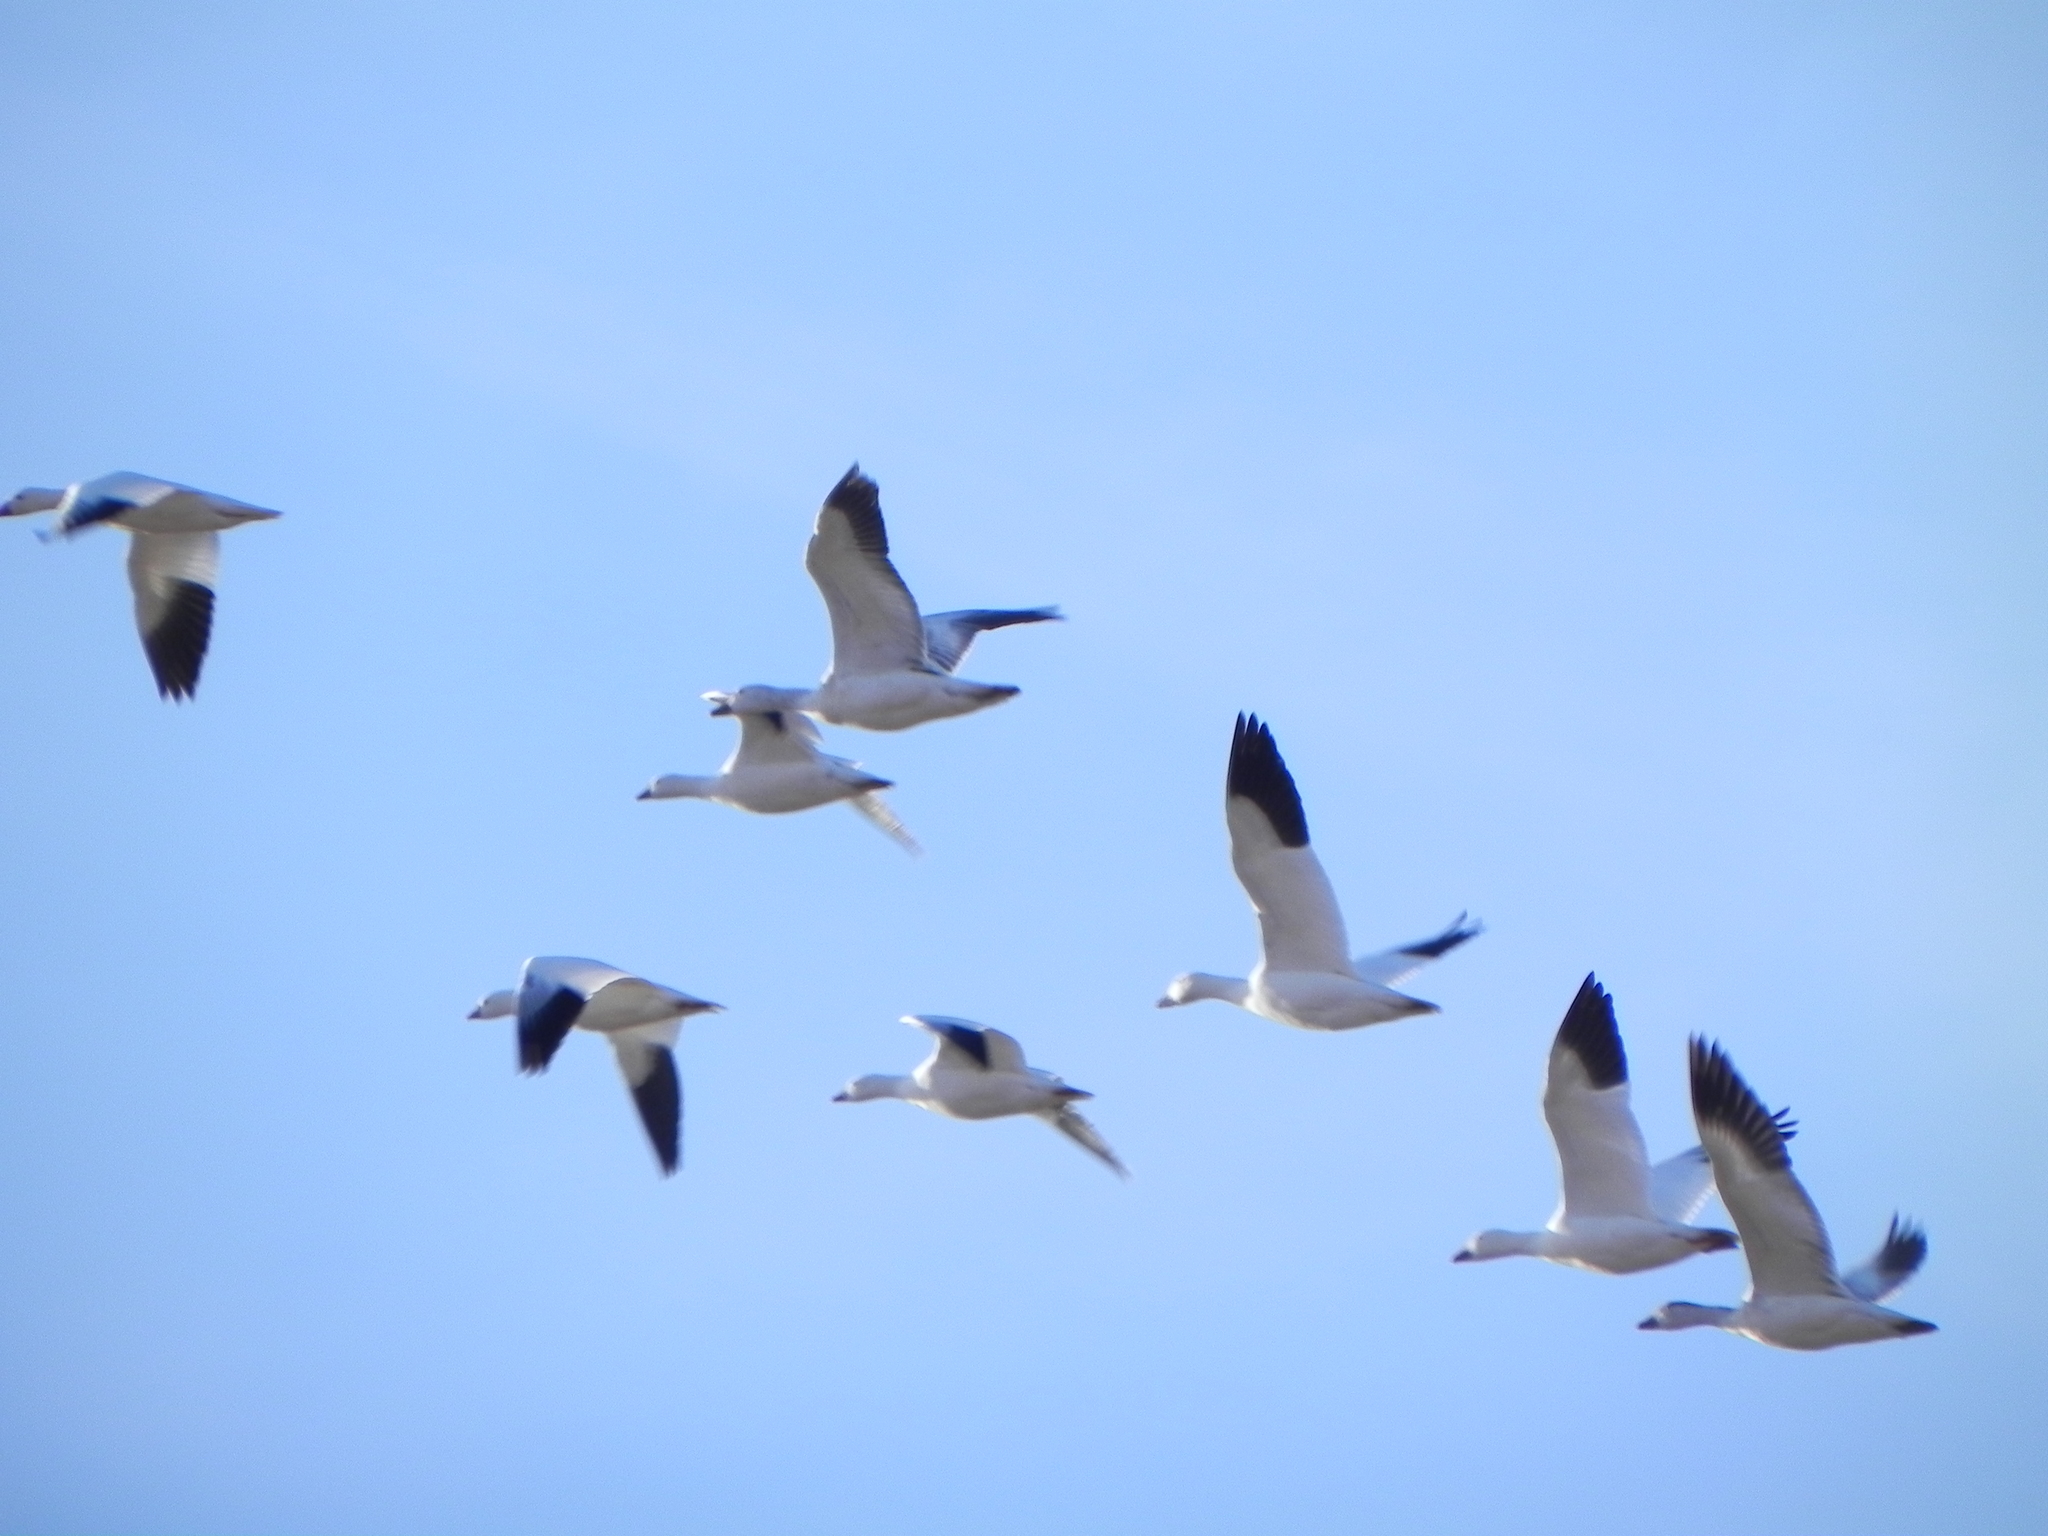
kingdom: Animalia
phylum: Chordata
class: Aves
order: Anseriformes
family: Anatidae
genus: Anser
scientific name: Anser rossii
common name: Ross's goose
